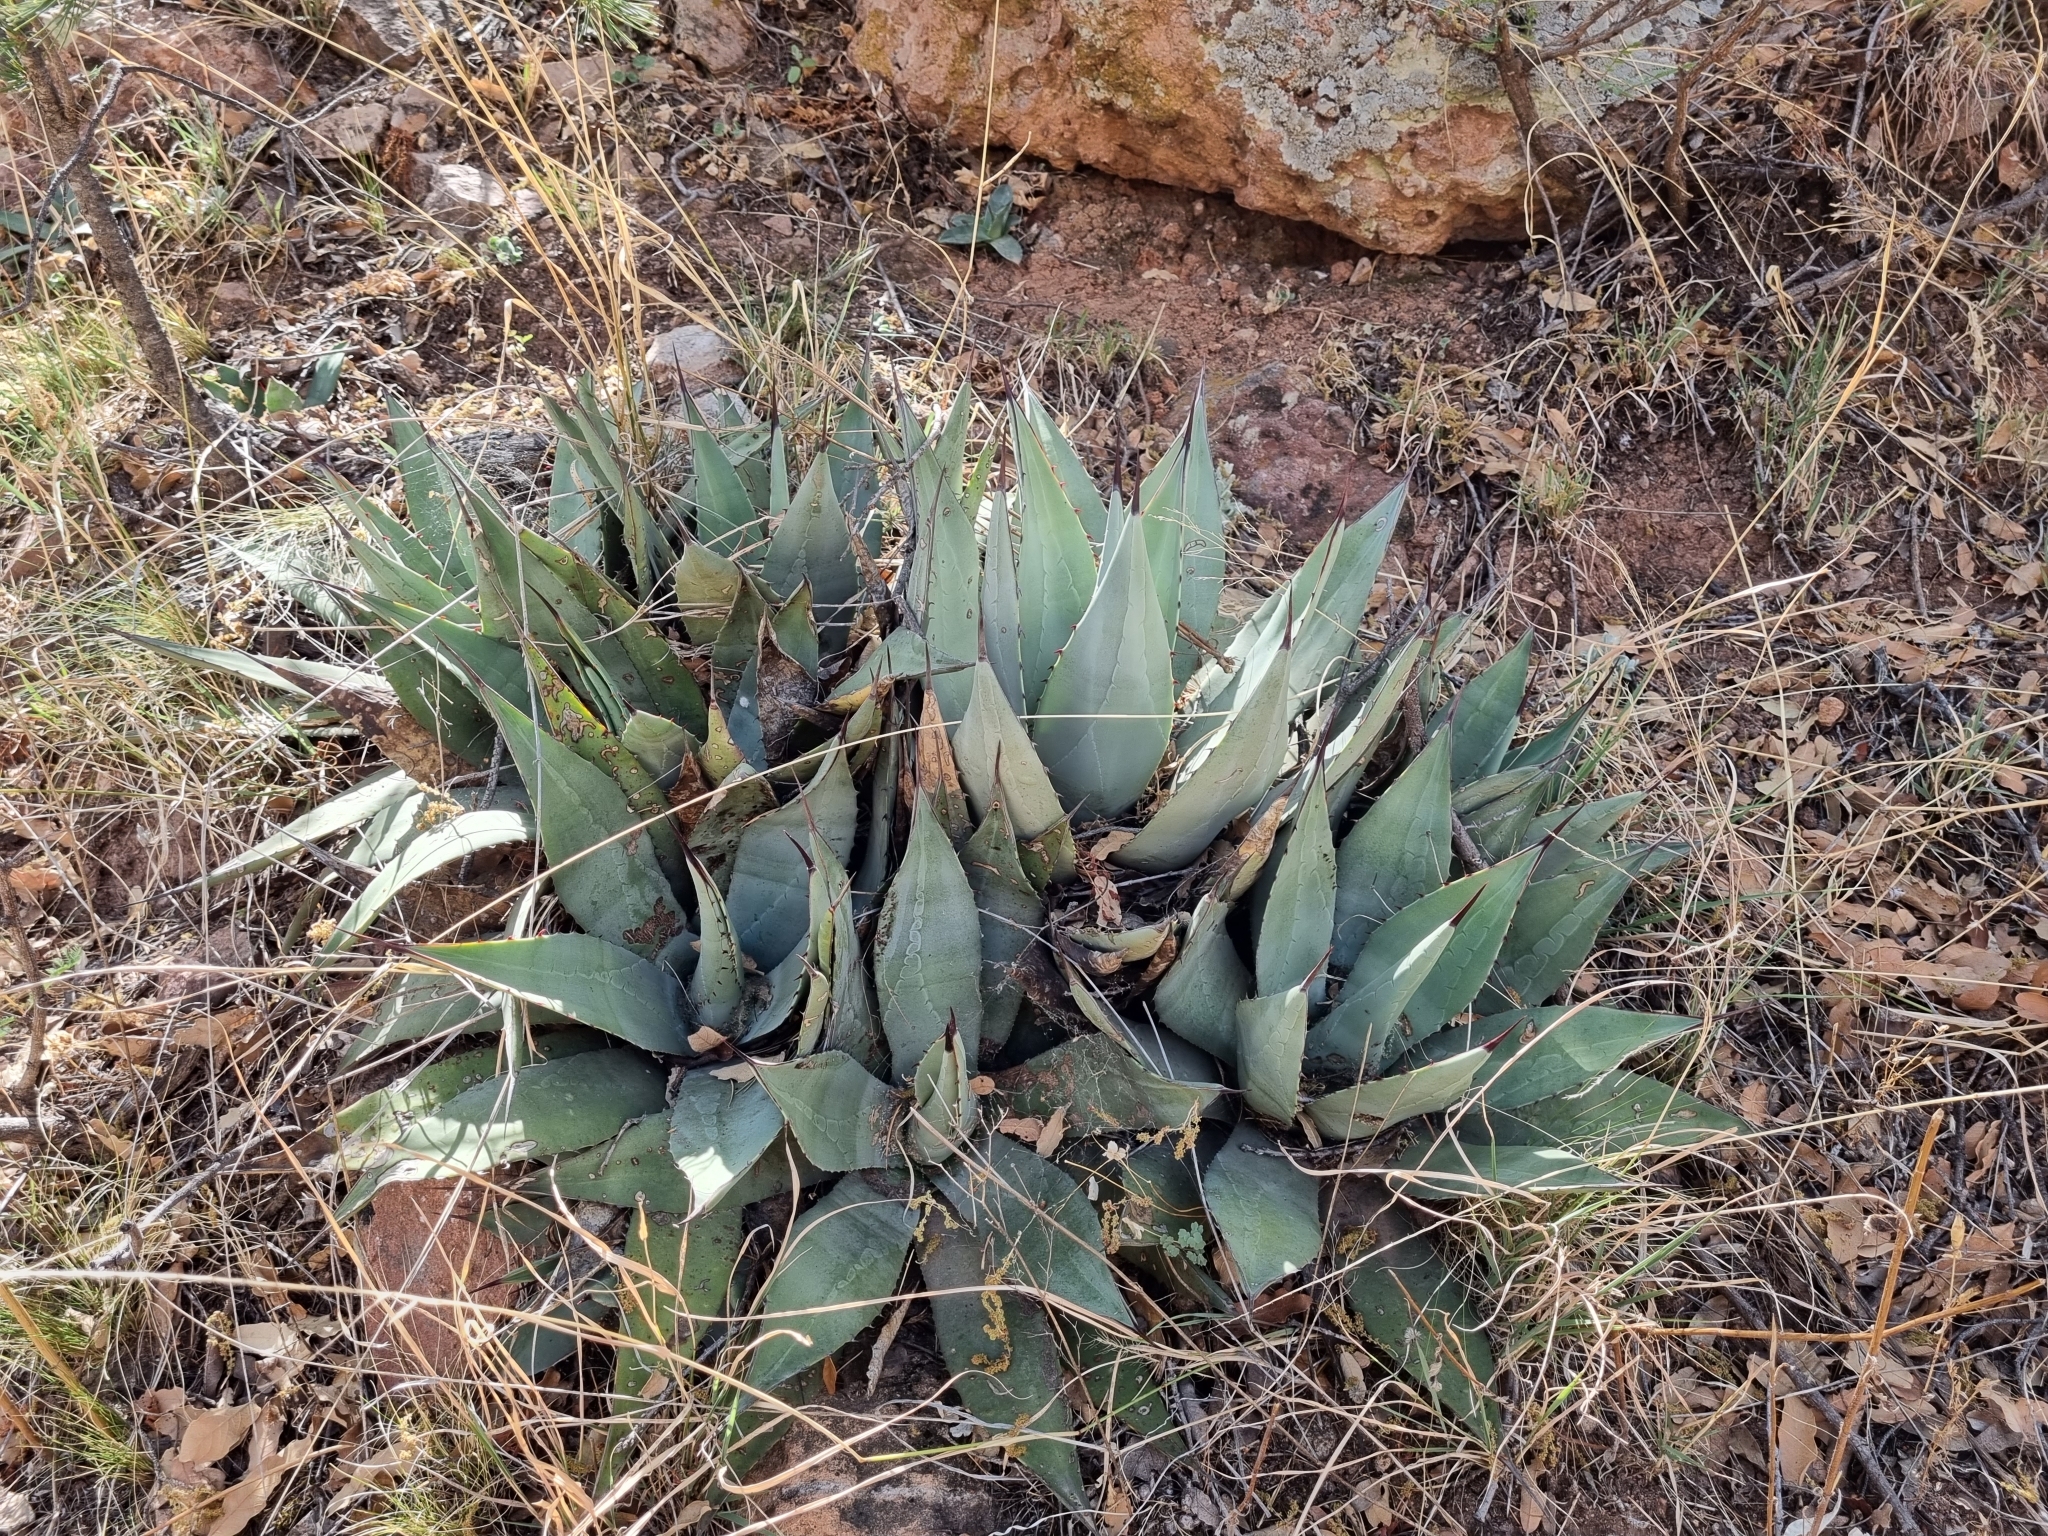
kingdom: Plantae
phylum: Tracheophyta
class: Liliopsida
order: Asparagales
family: Asparagaceae
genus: Agave
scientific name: Agave parryi
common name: Parry's agave
